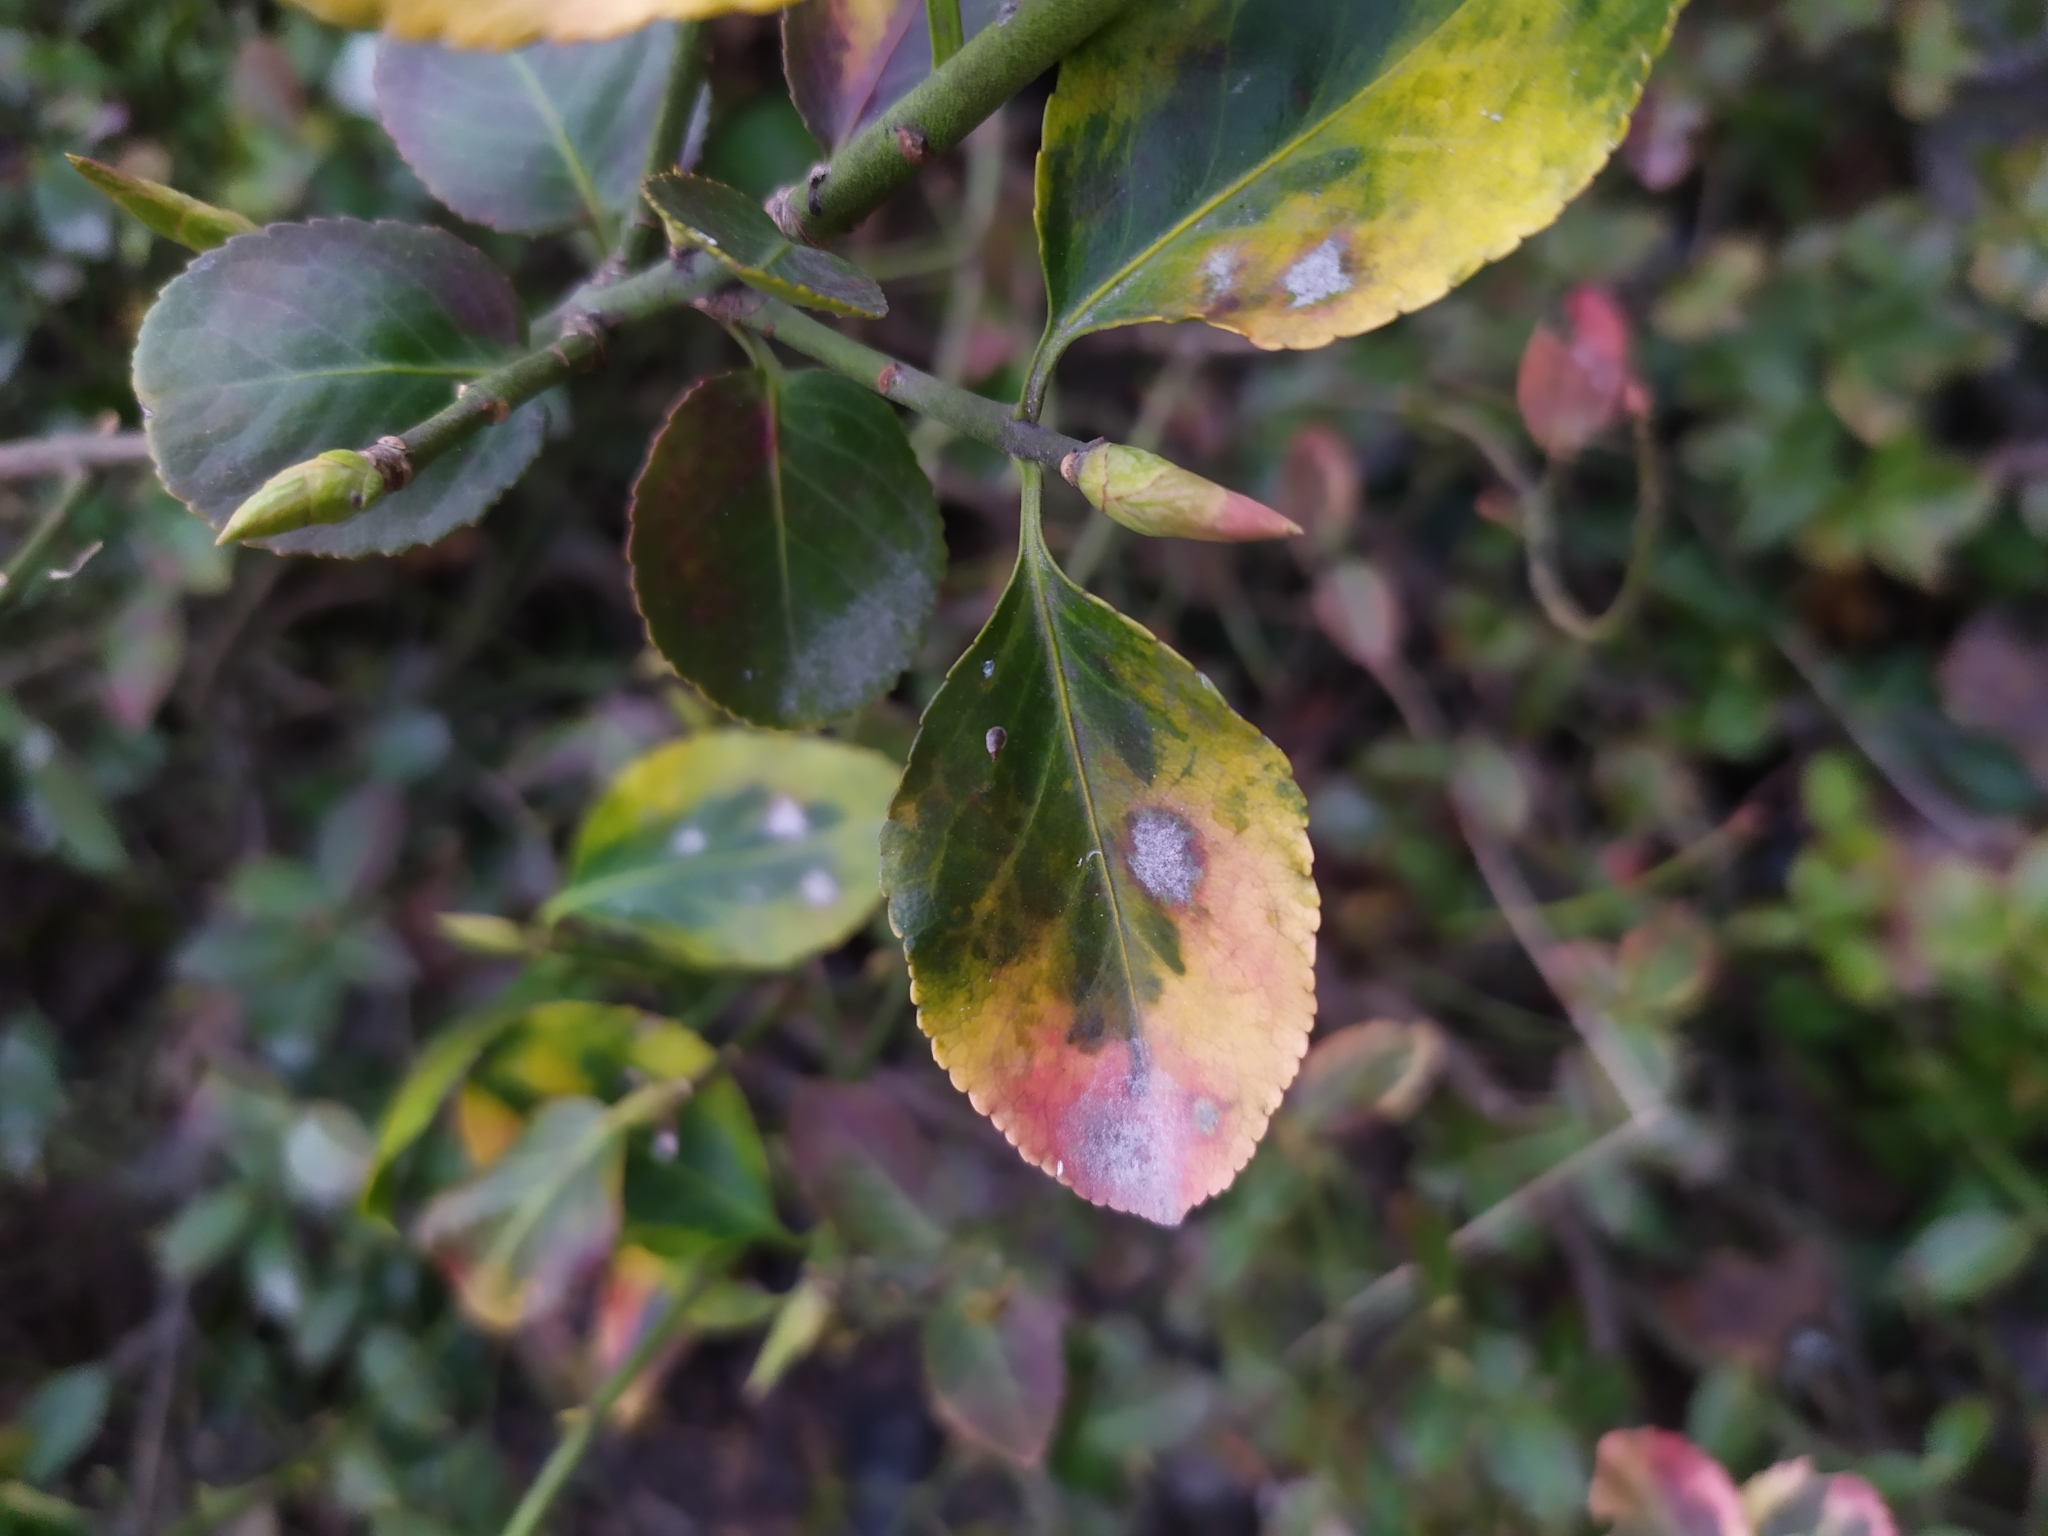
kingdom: Fungi
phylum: Ascomycota
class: Leotiomycetes
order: Helotiales
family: Erysiphaceae
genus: Erysiphe
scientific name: Erysiphe euonymicola
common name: Spindletree mildew
